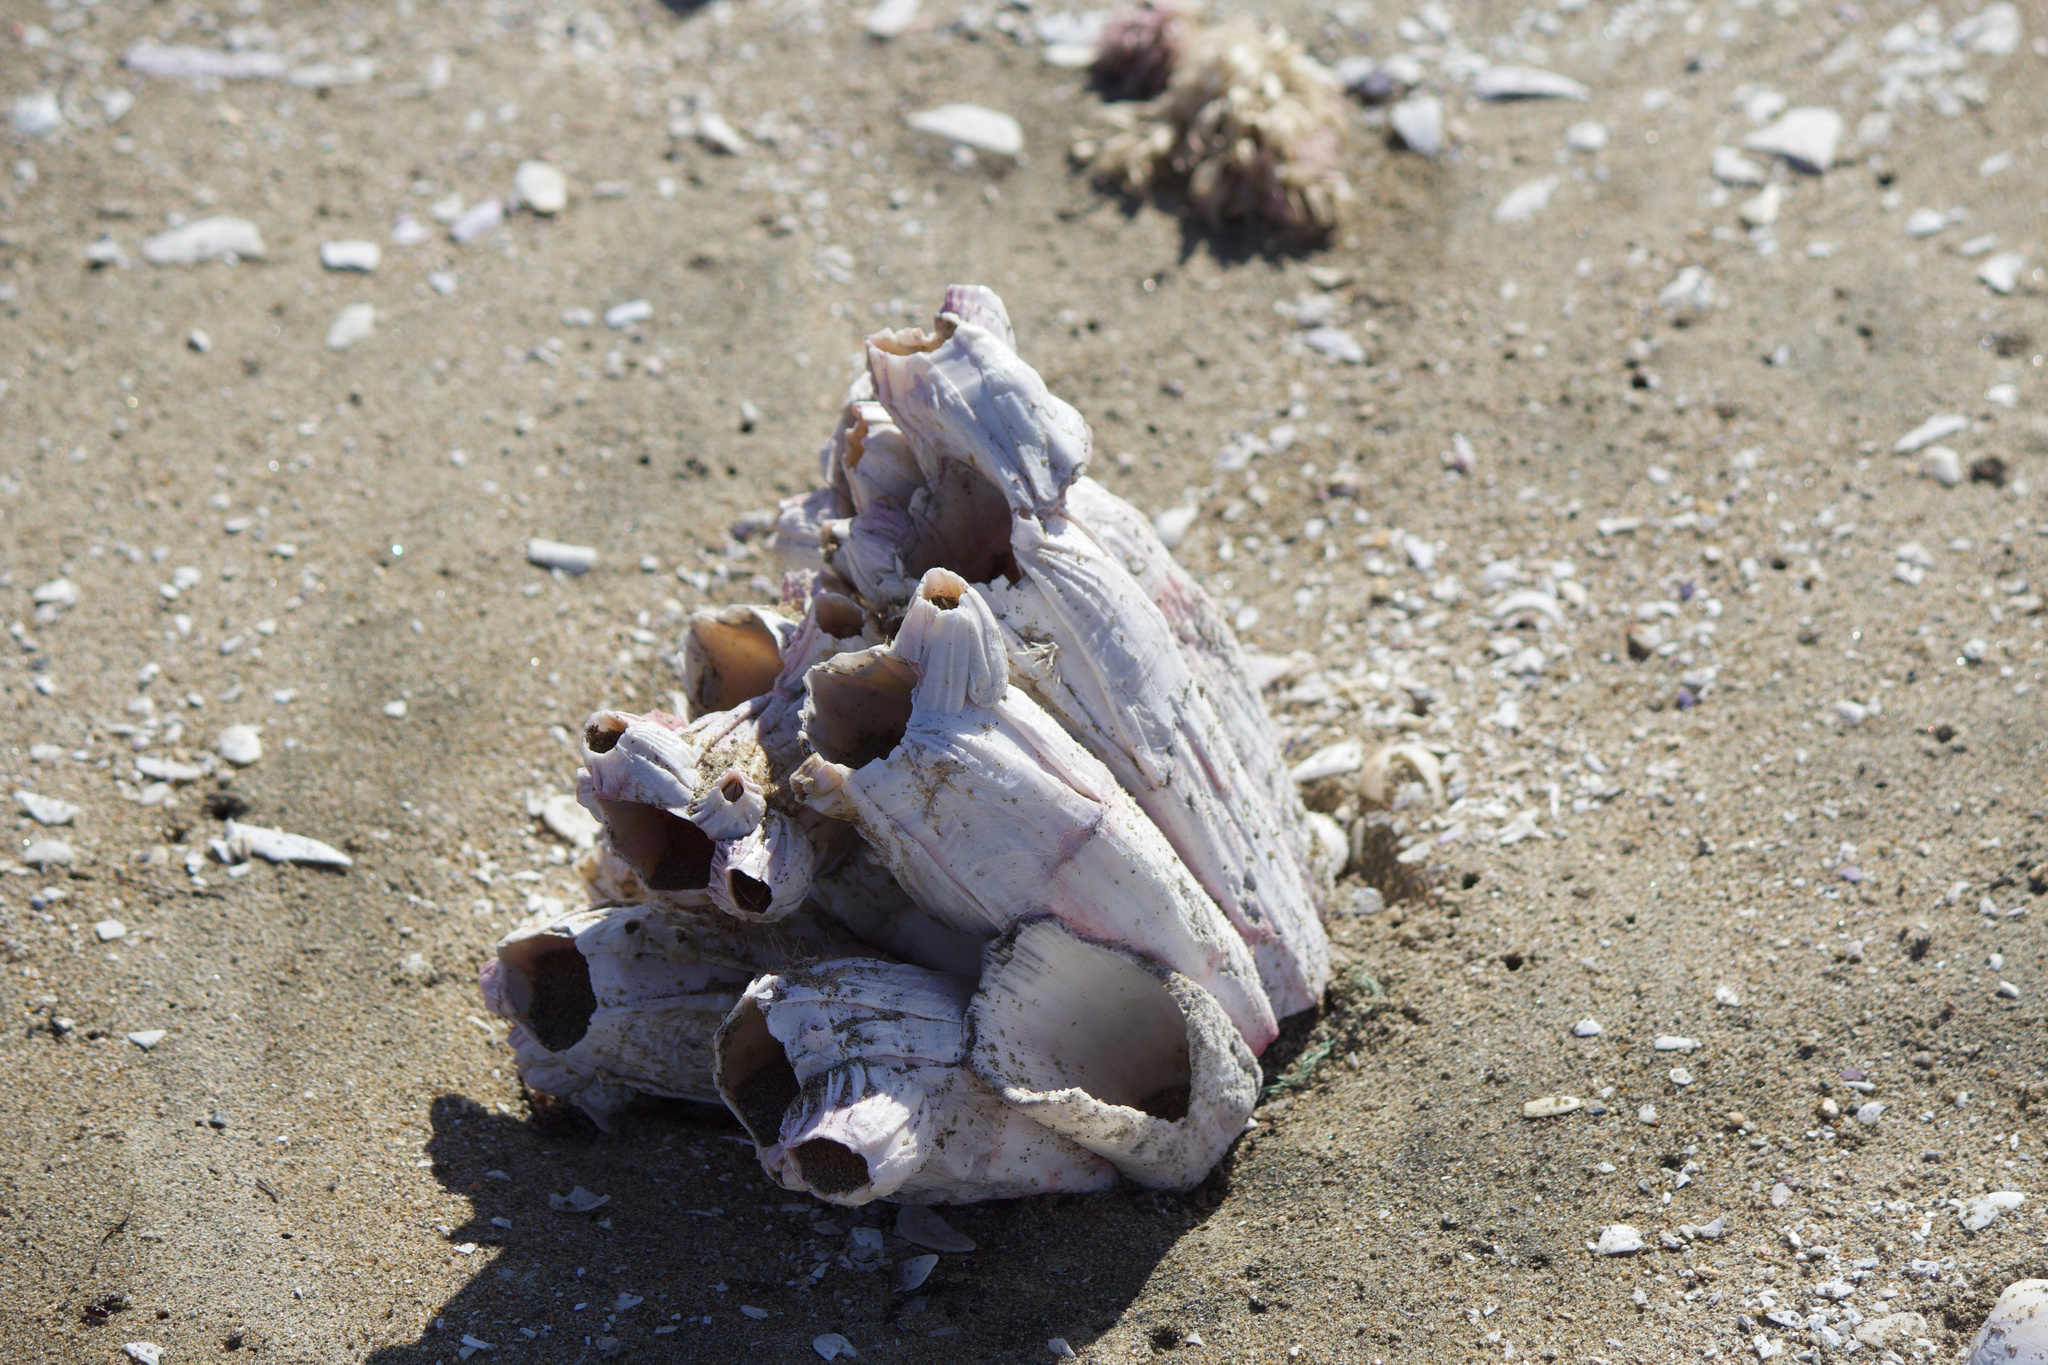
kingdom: Animalia
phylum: Arthropoda
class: Maxillopoda
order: Sessilia
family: Balanidae
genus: Austromegabalanus
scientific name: Austromegabalanus psittacus
